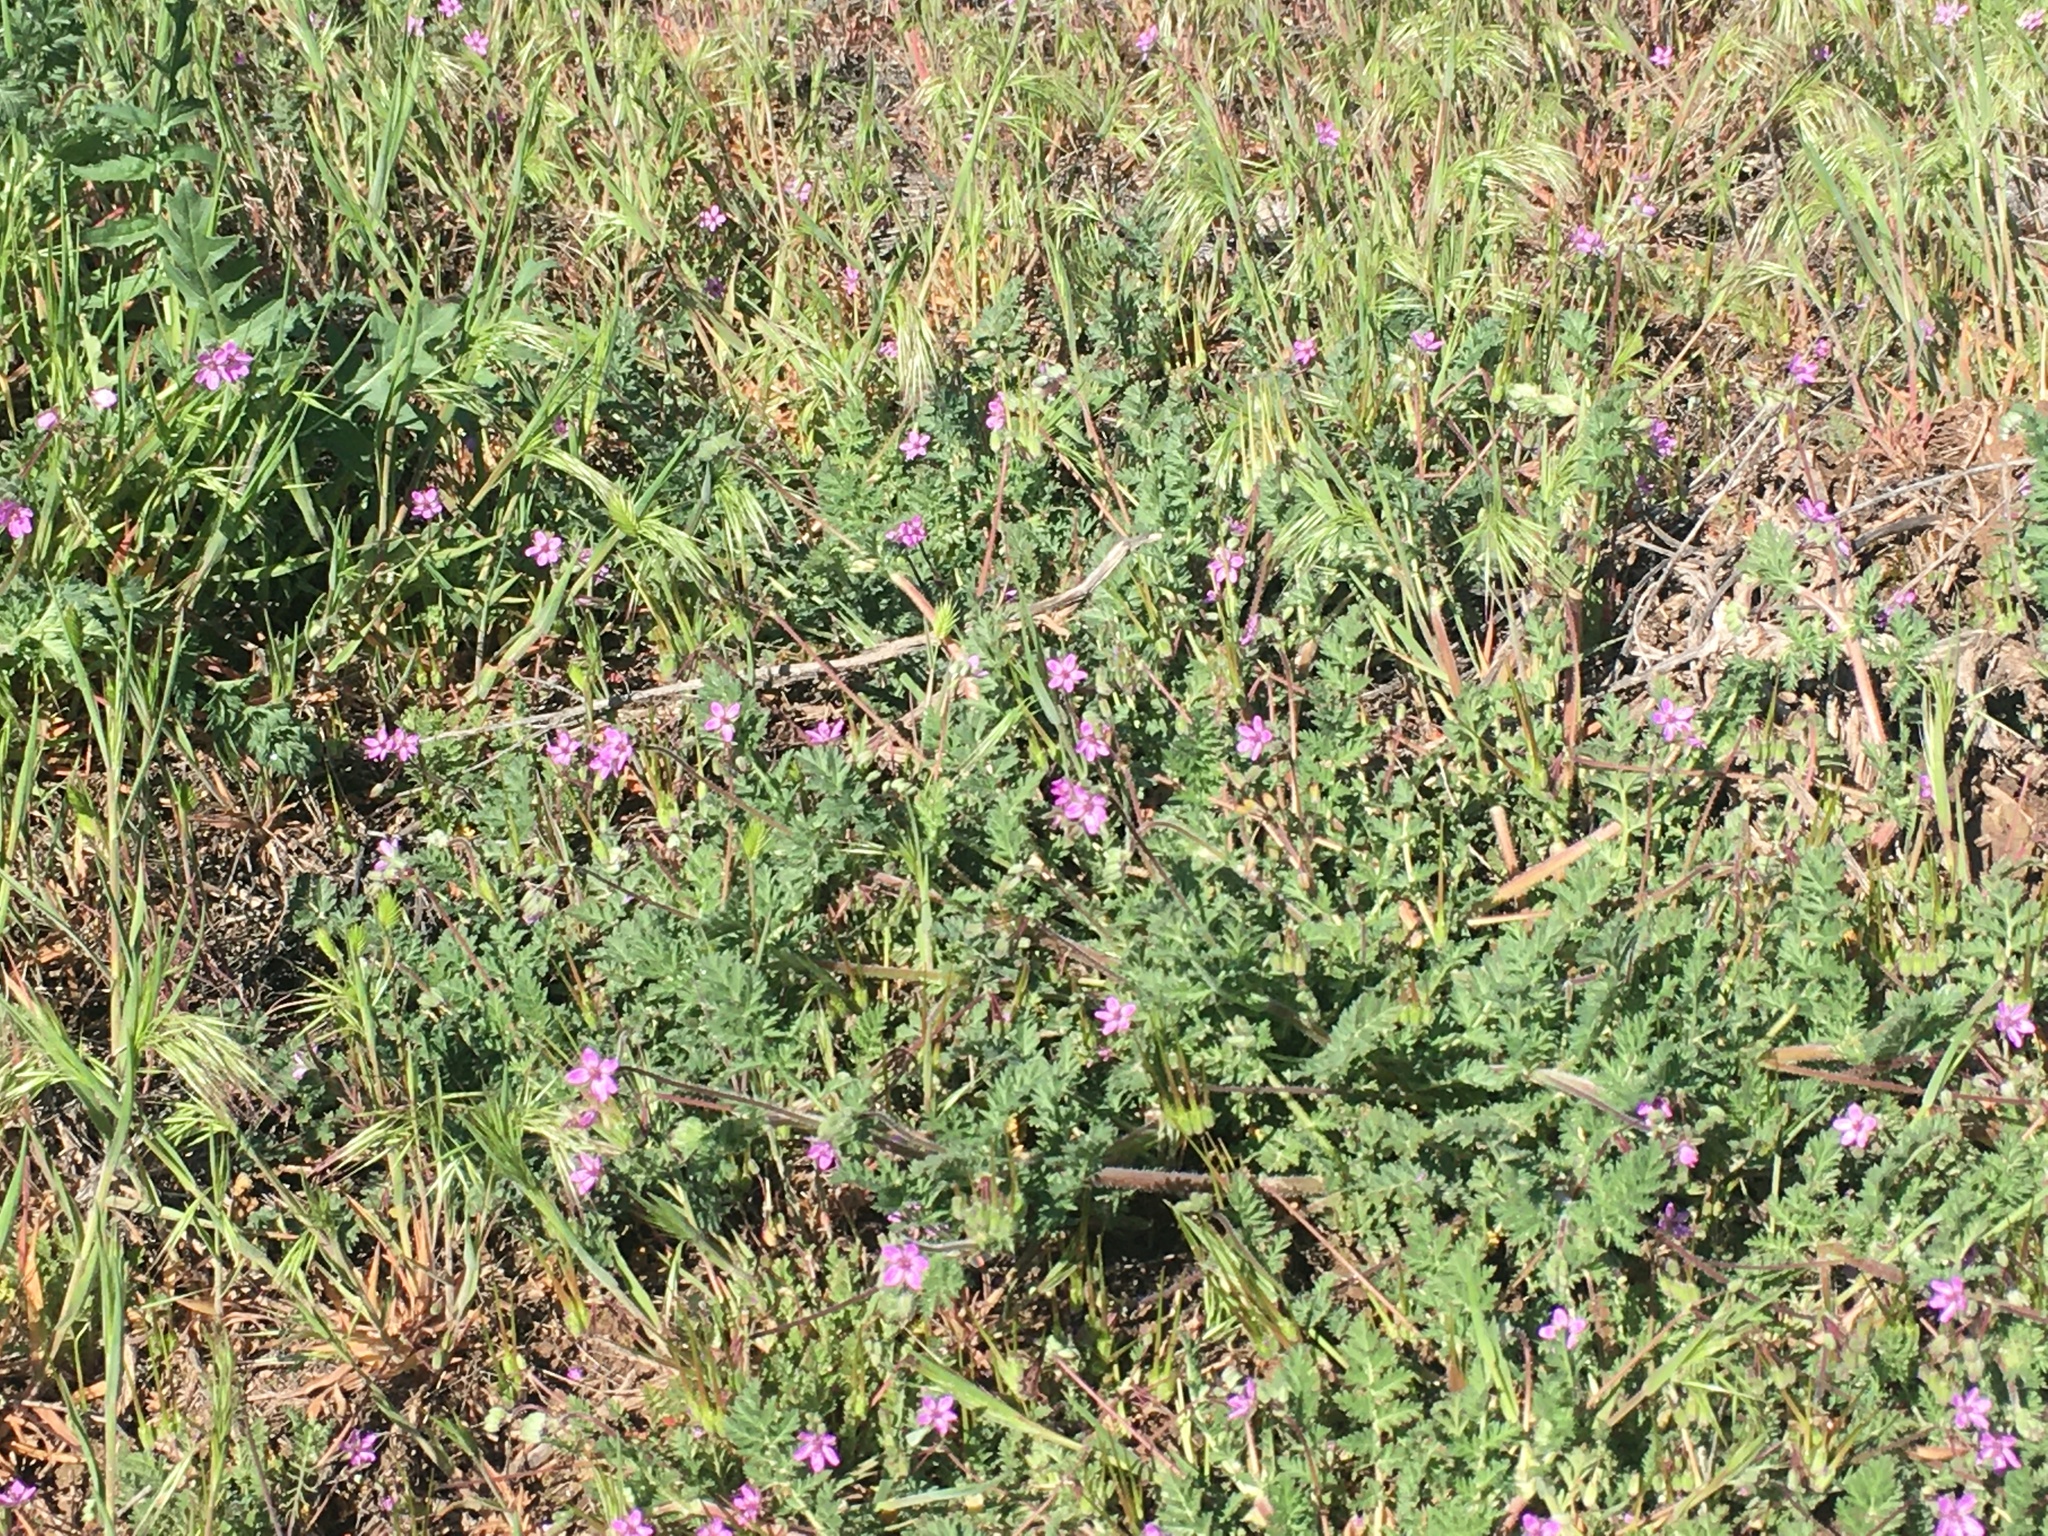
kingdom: Plantae
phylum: Tracheophyta
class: Magnoliopsida
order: Geraniales
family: Geraniaceae
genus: Erodium
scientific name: Erodium cicutarium
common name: Common stork's-bill
